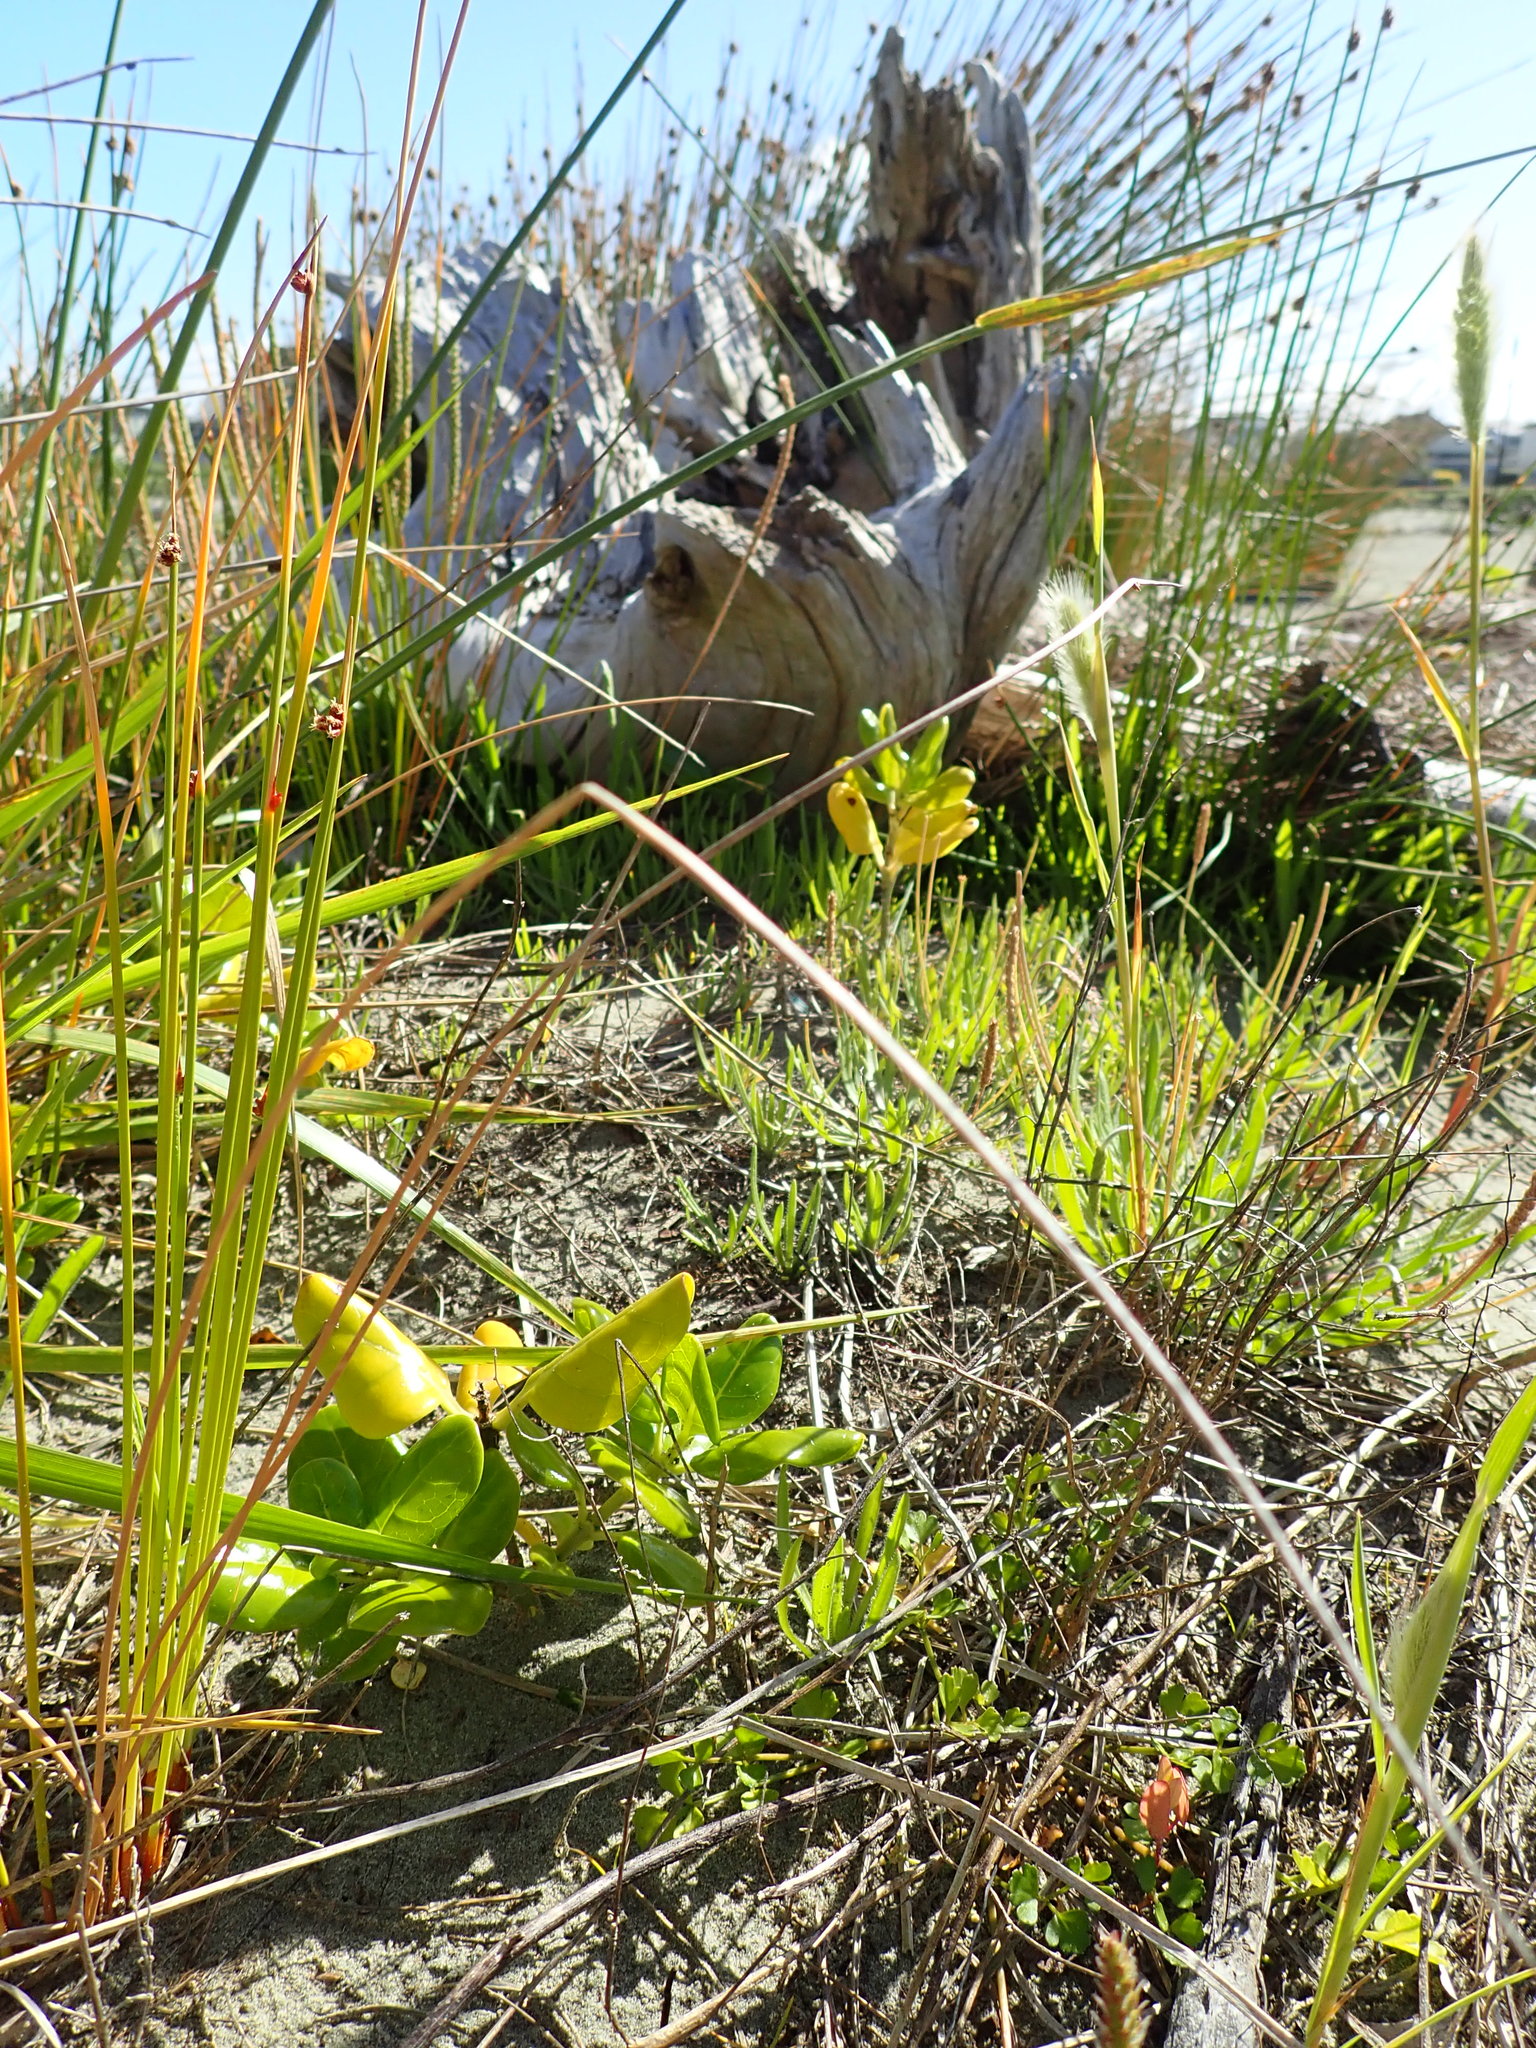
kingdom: Plantae
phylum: Tracheophyta
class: Magnoliopsida
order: Gentianales
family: Rubiaceae
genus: Coprosma
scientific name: Coprosma repens
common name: Tree bedstraw
